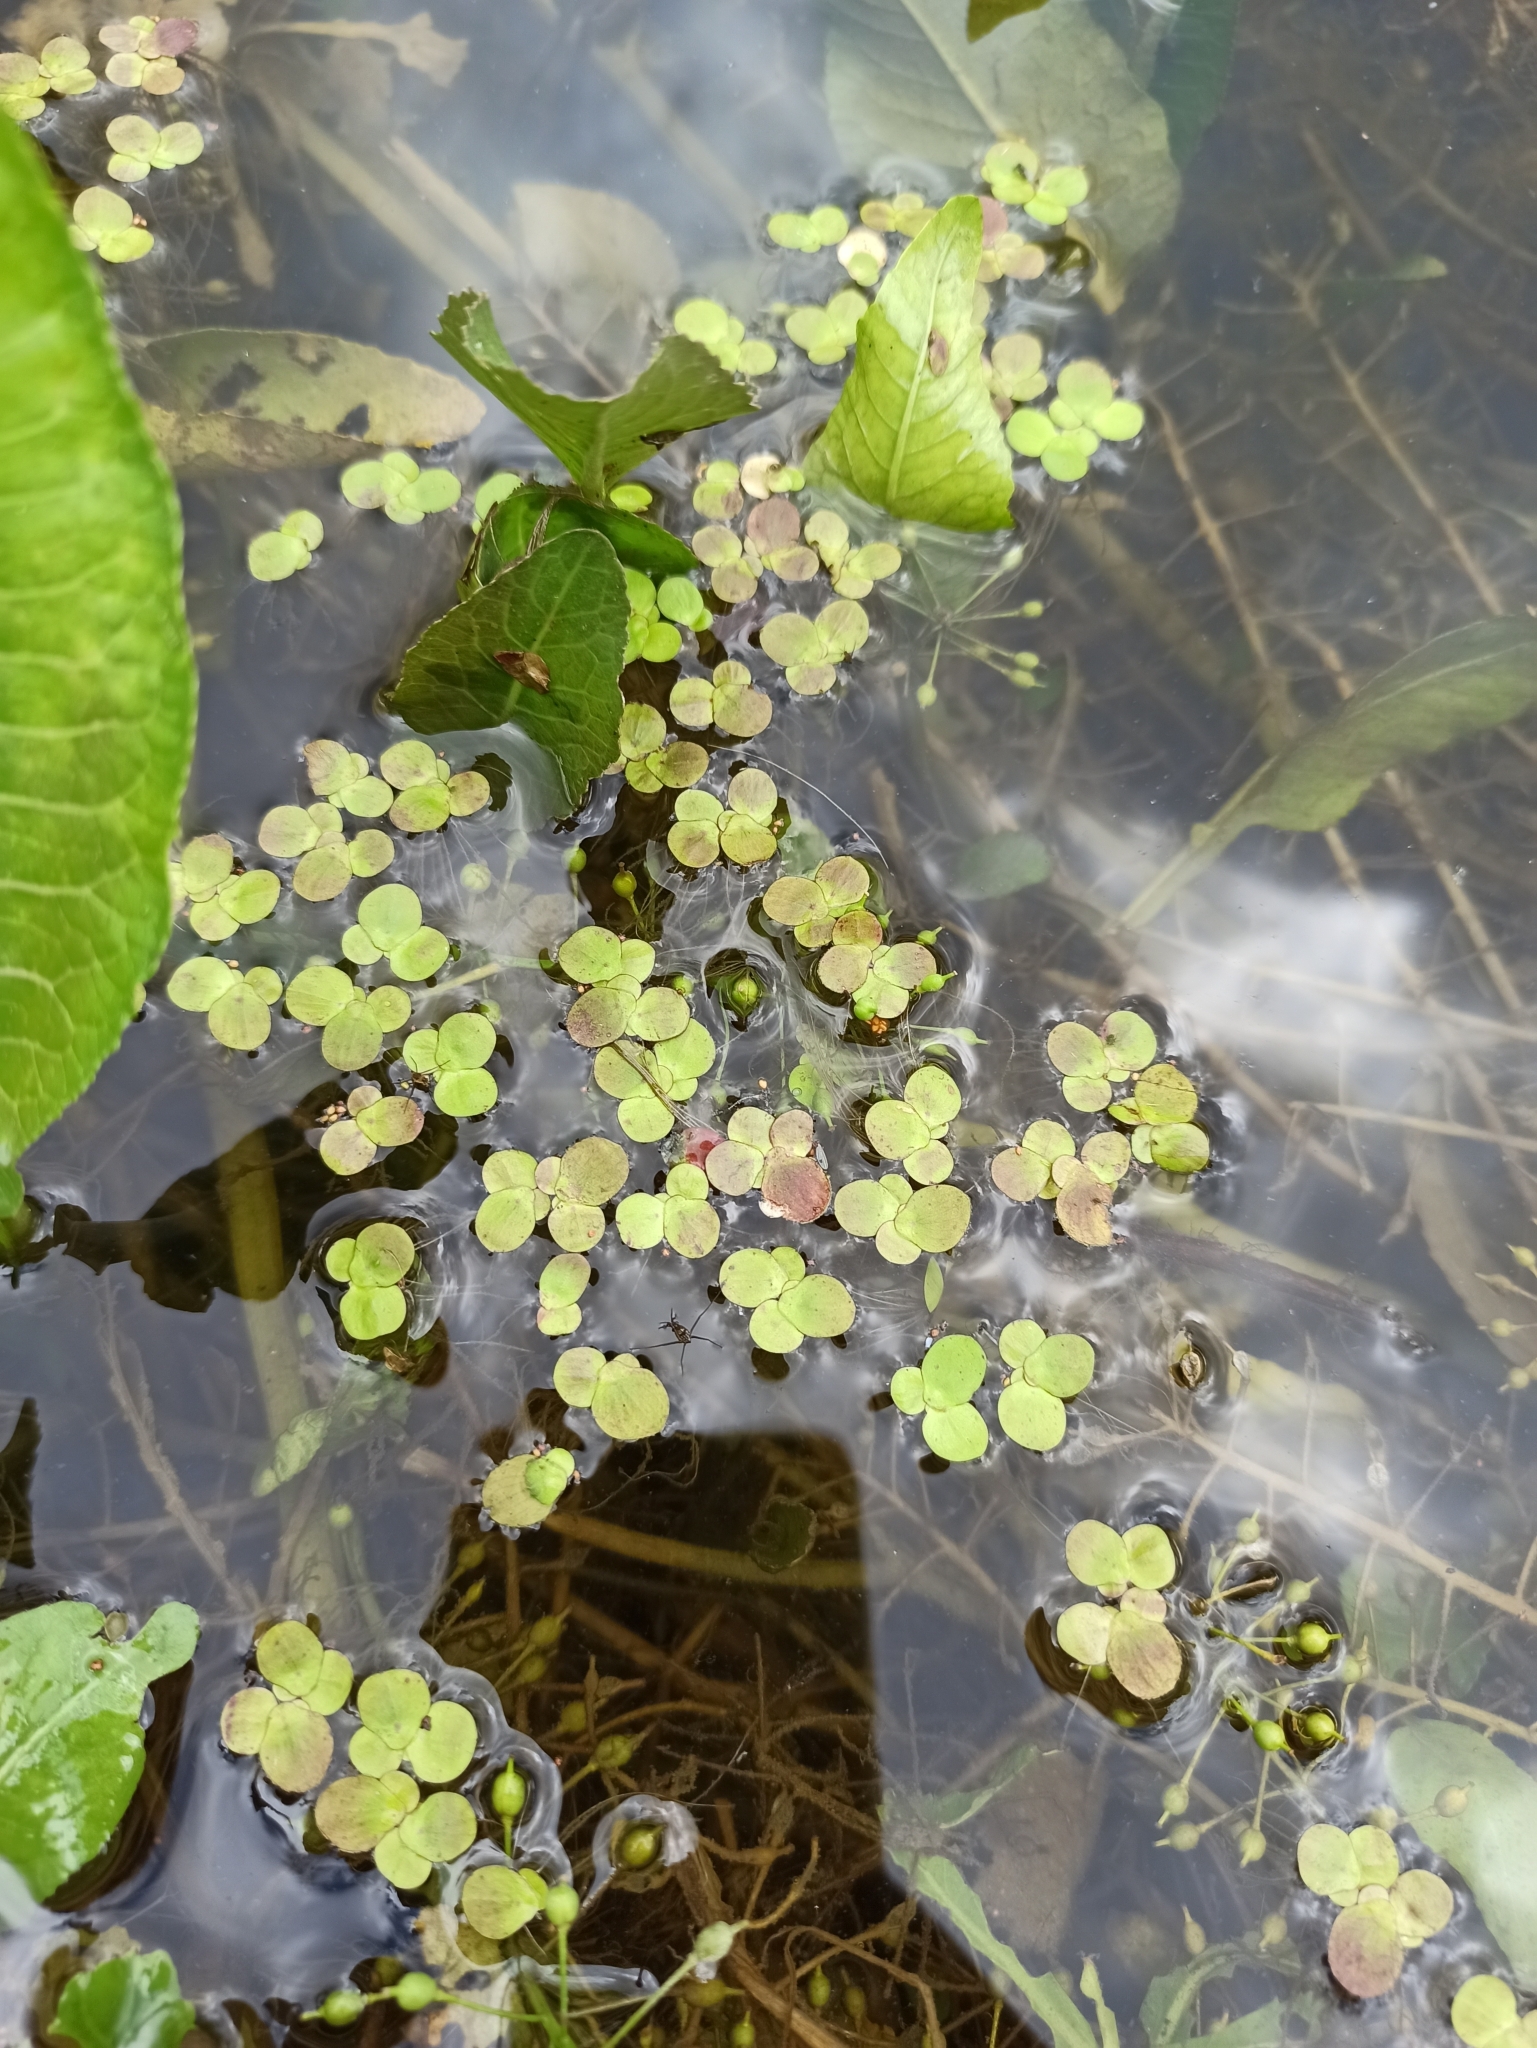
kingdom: Plantae
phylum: Tracheophyta
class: Liliopsida
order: Alismatales
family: Araceae
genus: Spirodela
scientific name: Spirodela polyrhiza
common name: Great duckweed
